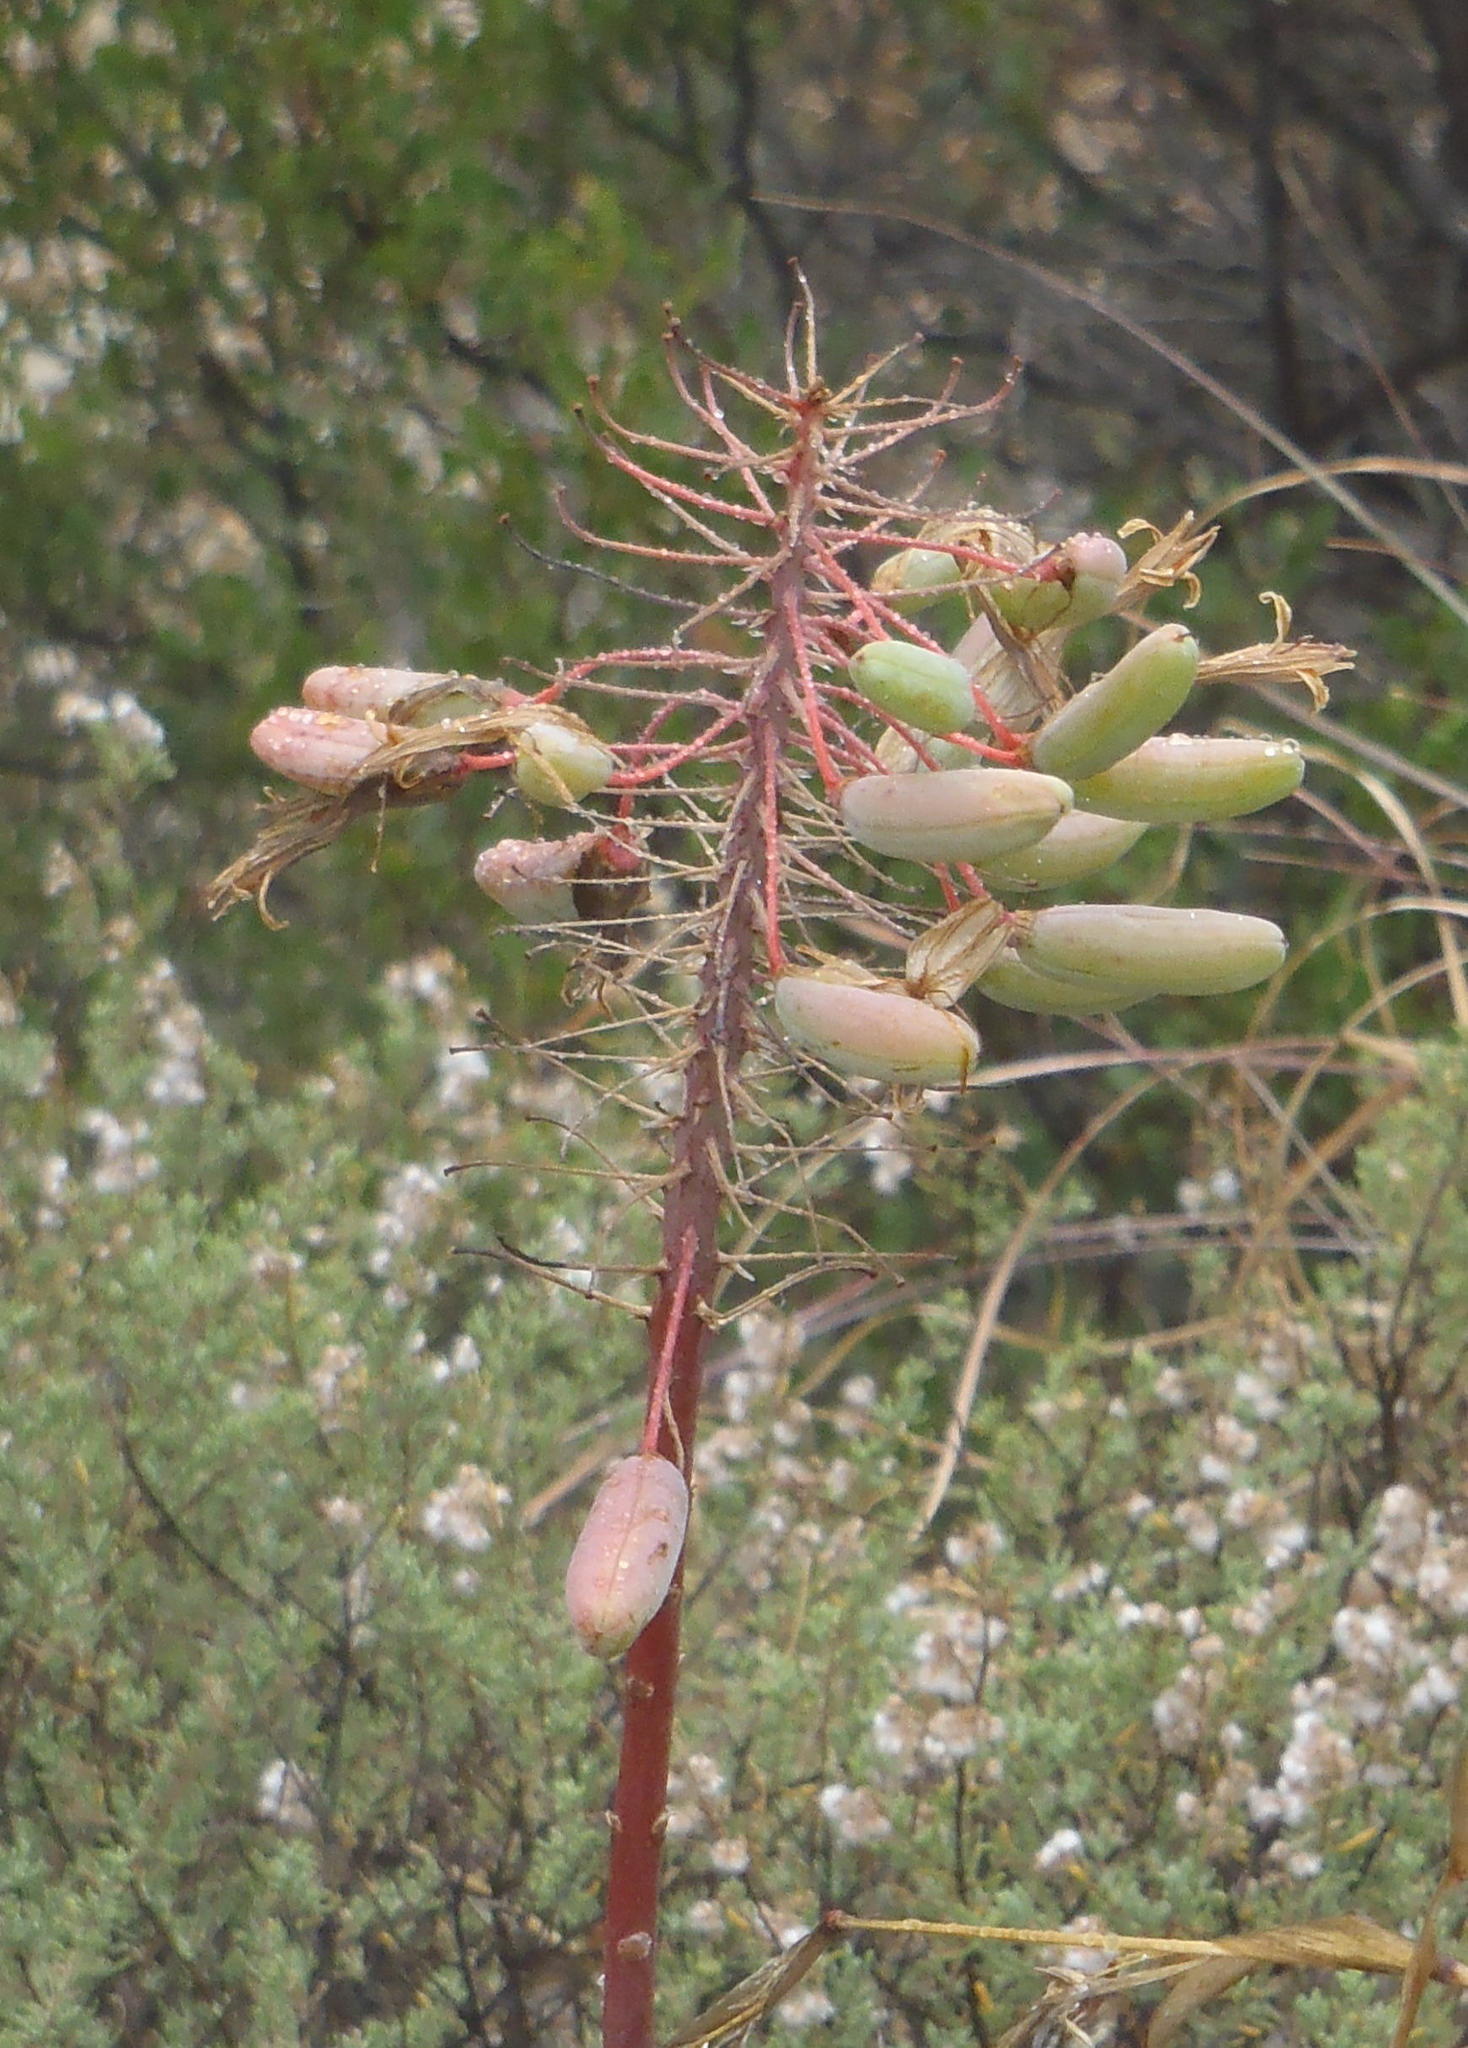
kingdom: Plantae
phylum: Tracheophyta
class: Liliopsida
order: Asparagales
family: Asphodelaceae
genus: Aloe
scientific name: Aloe comptonii
